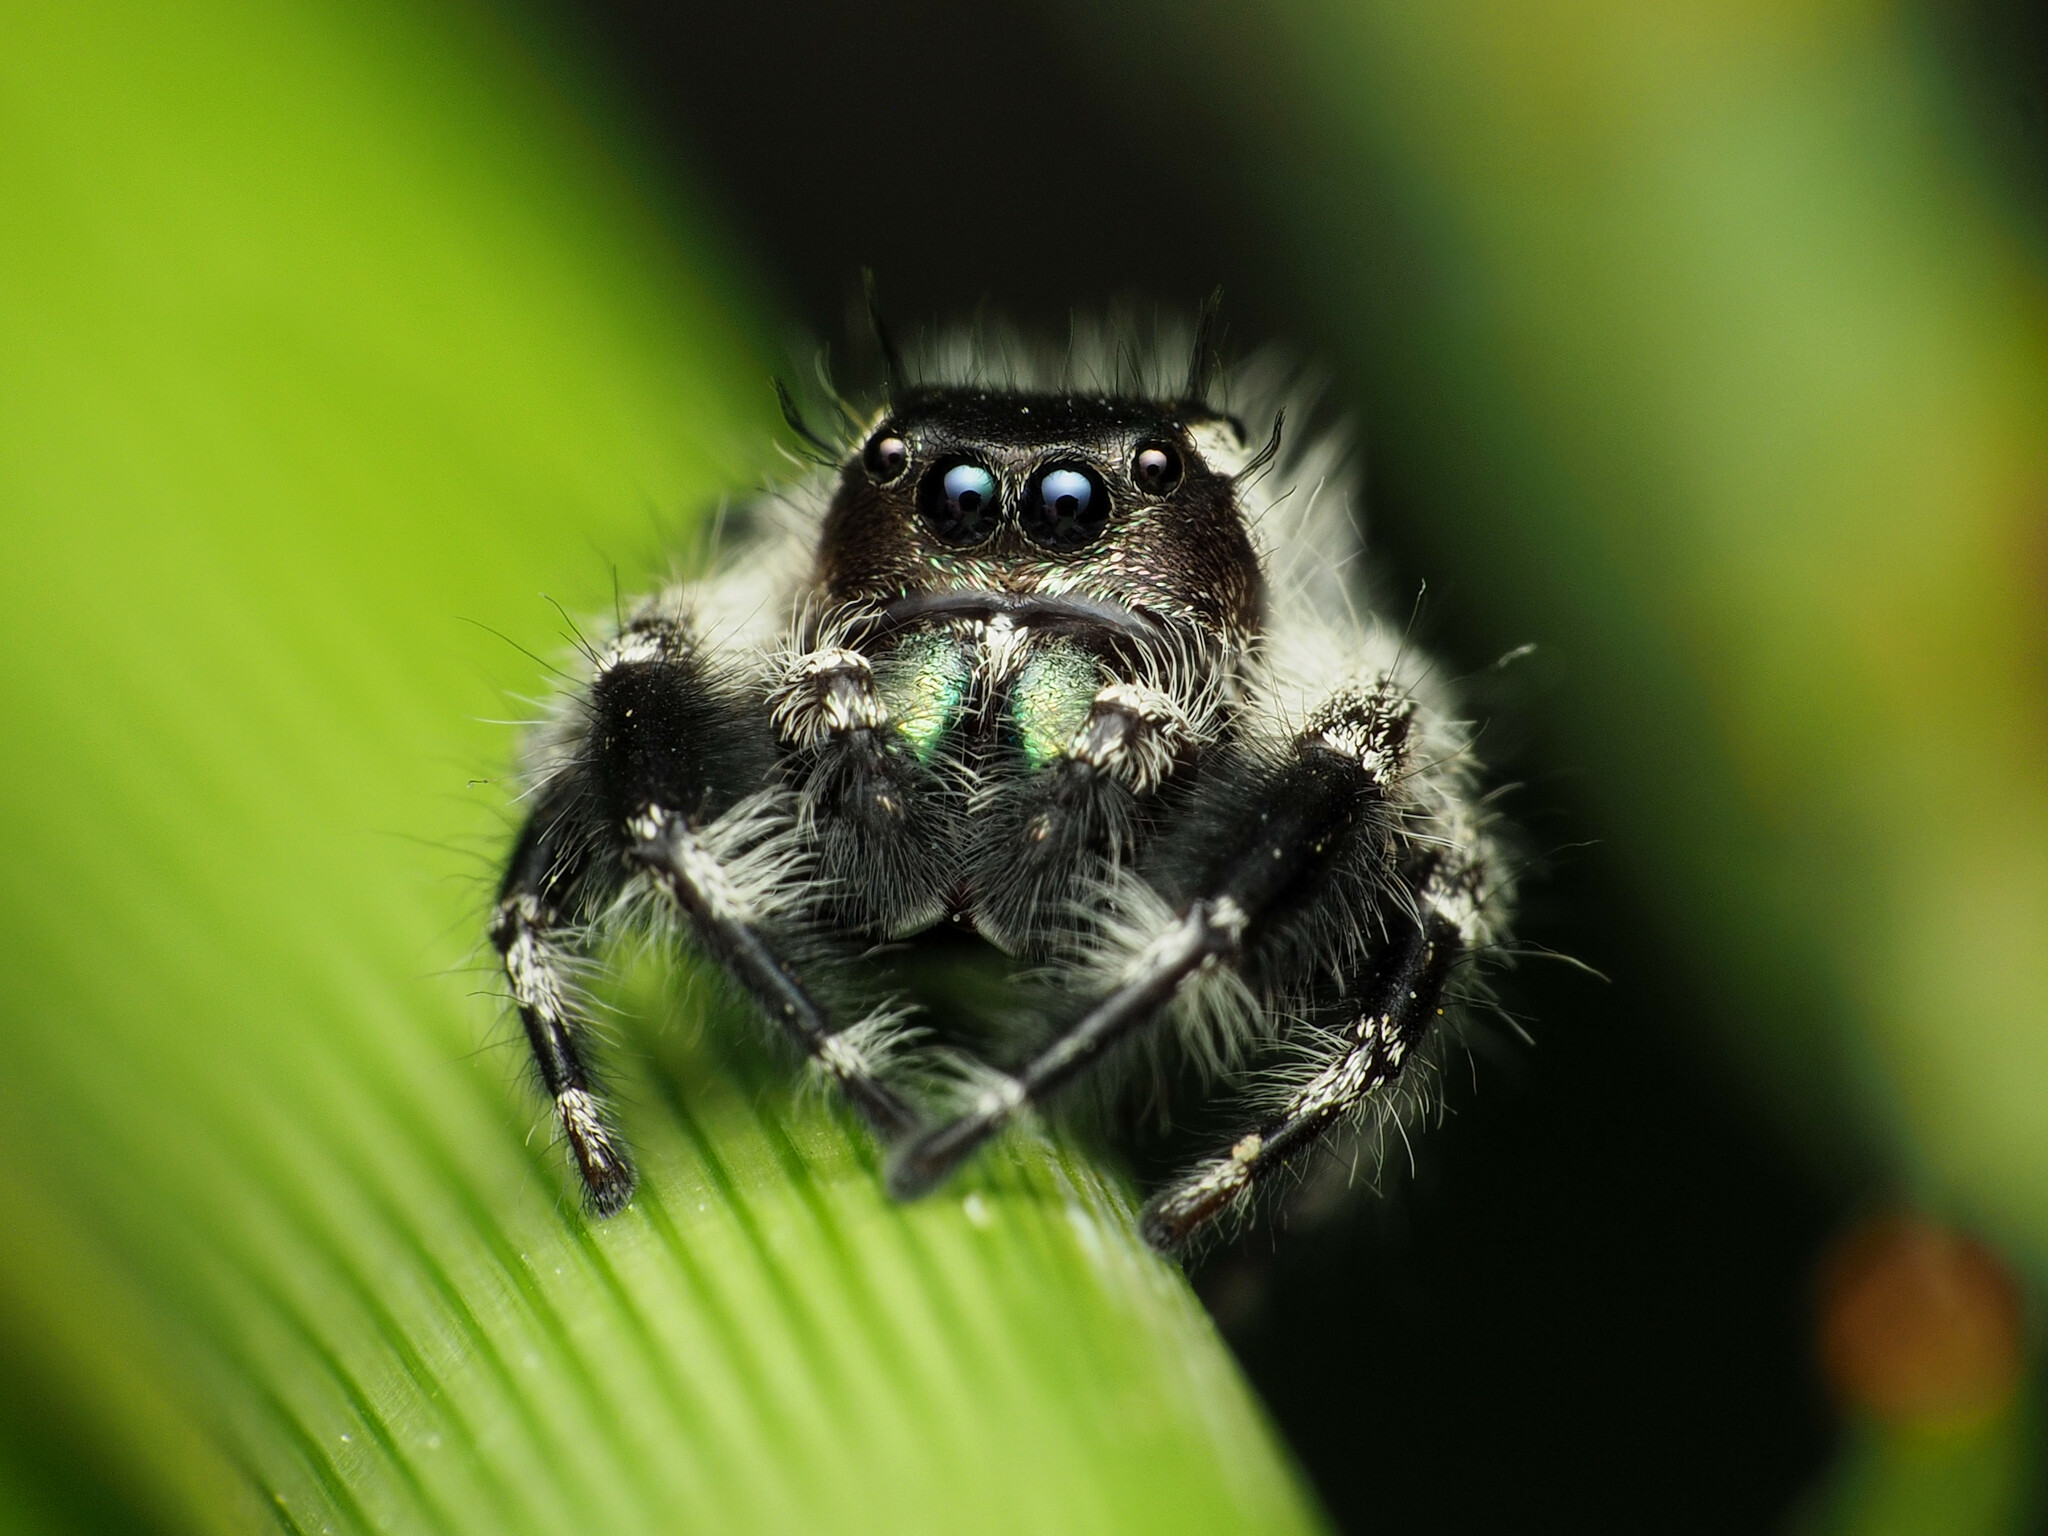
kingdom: Animalia
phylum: Arthropoda
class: Arachnida
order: Araneae
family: Salticidae
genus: Phidippus
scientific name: Phidippus otiosus
